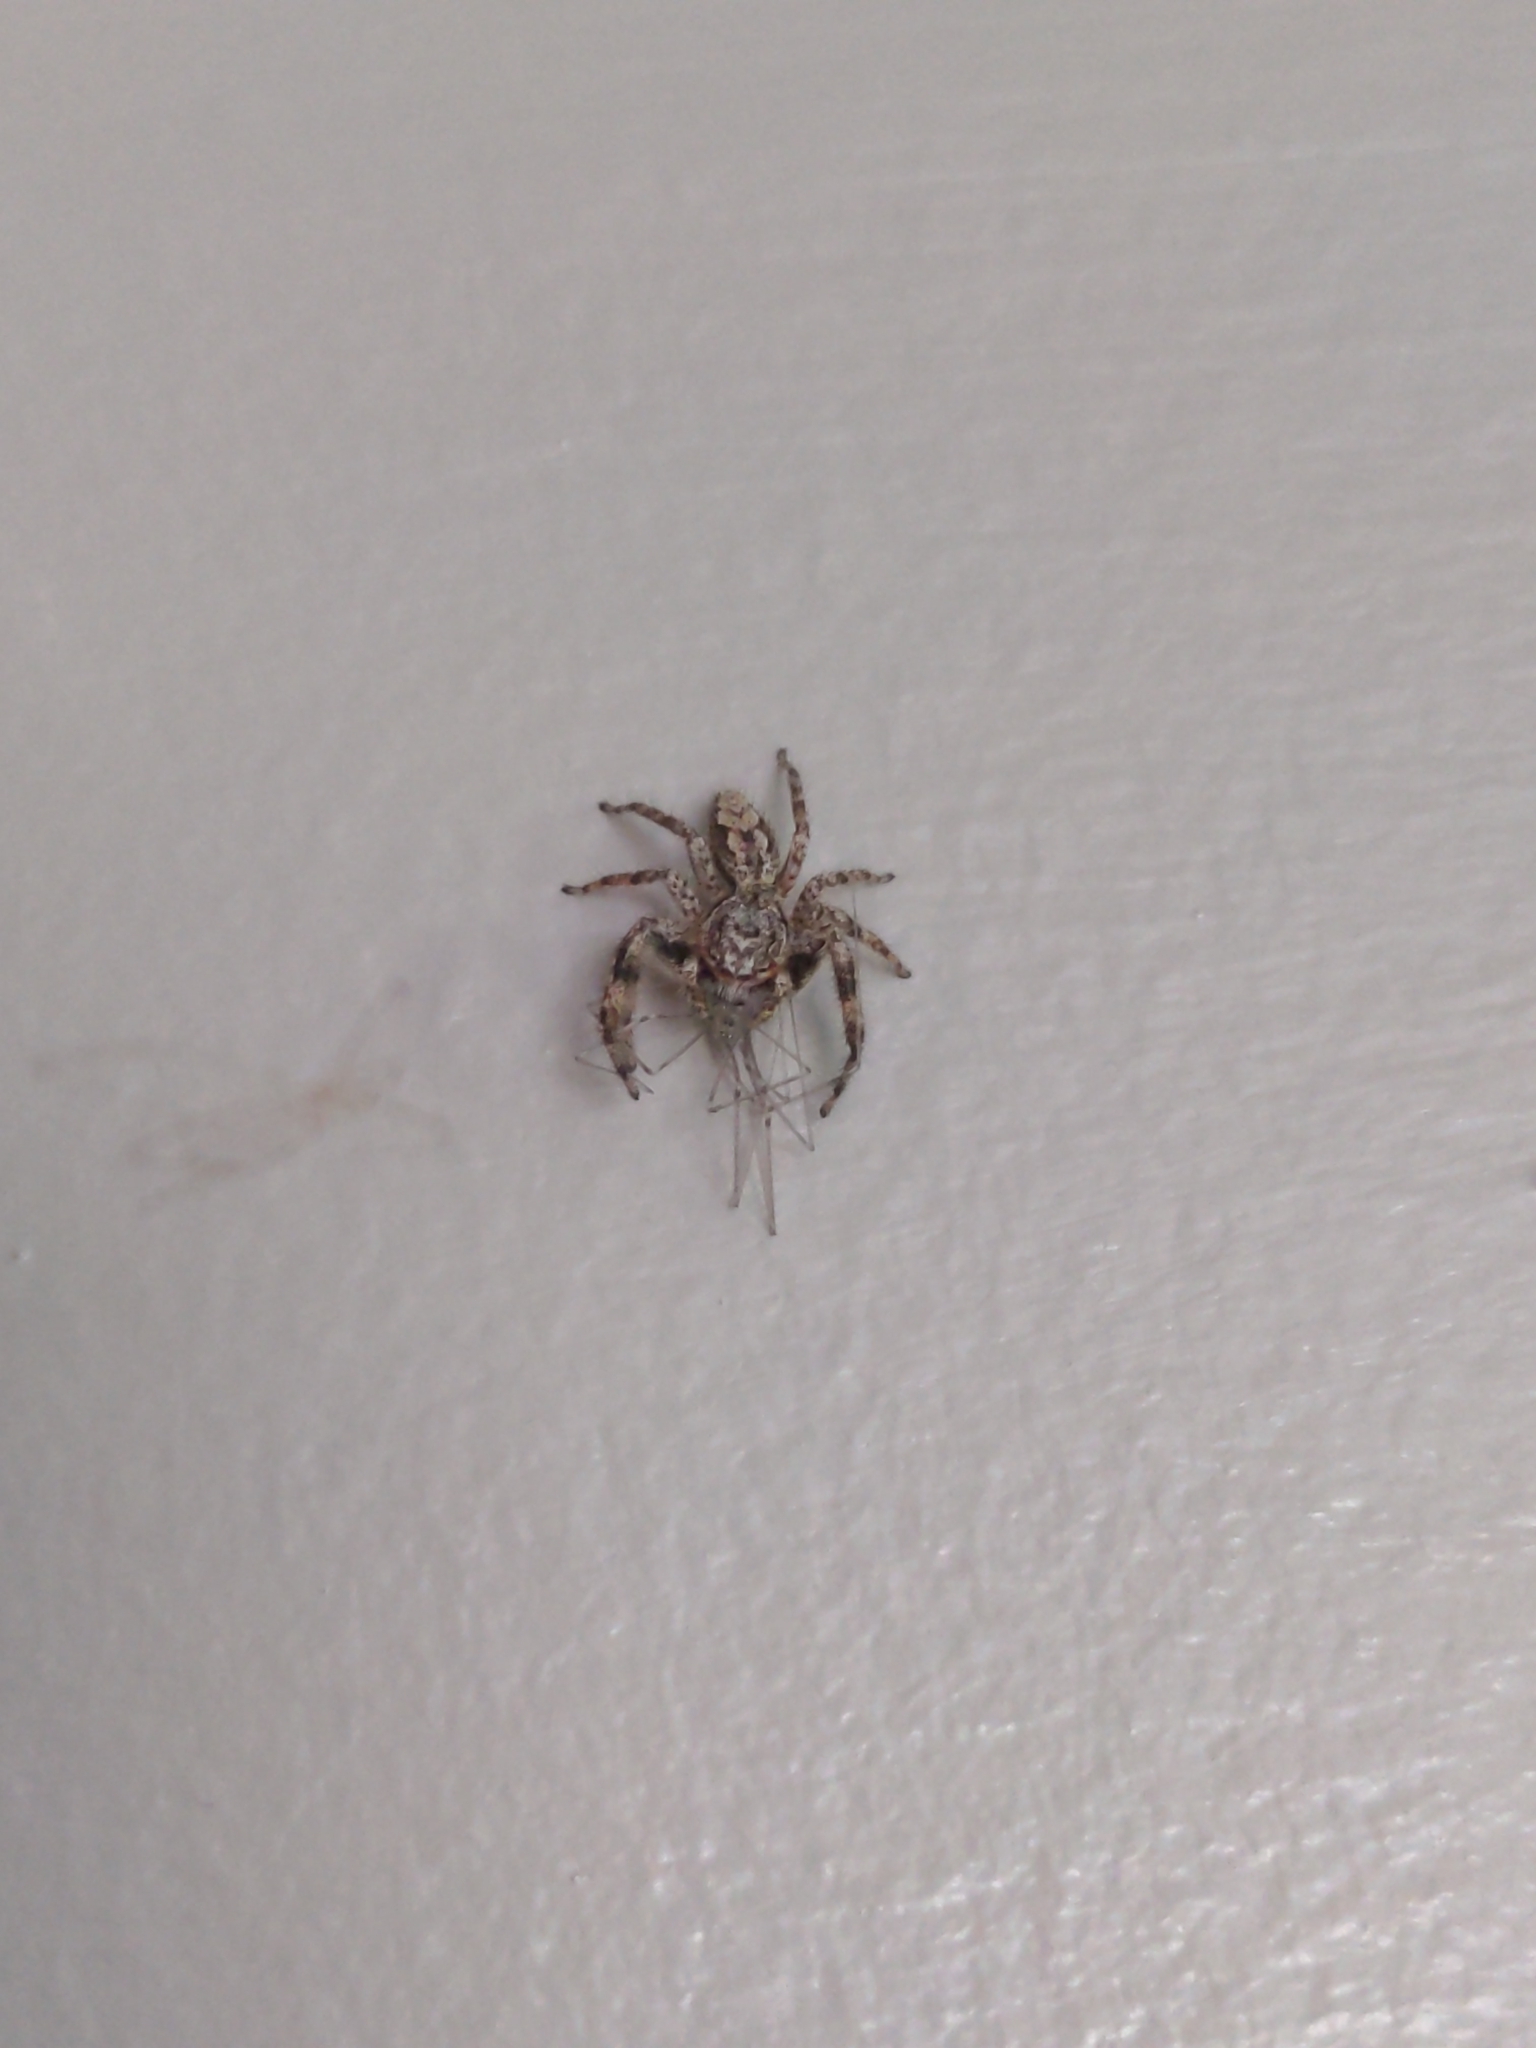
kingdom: Animalia
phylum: Arthropoda
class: Arachnida
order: Araneae
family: Salticidae
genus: Platycryptus
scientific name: Platycryptus undatus
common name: Tan jumping spider
